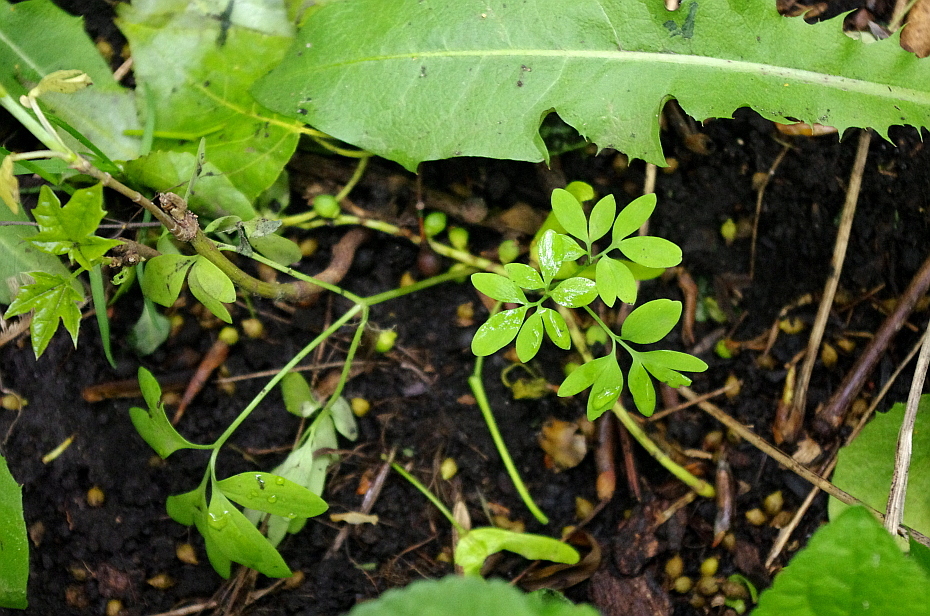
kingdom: Plantae
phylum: Tracheophyta
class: Magnoliopsida
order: Ranunculales
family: Papaveraceae
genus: Corydalis
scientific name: Corydalis solida
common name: Bird-in-a-bush
